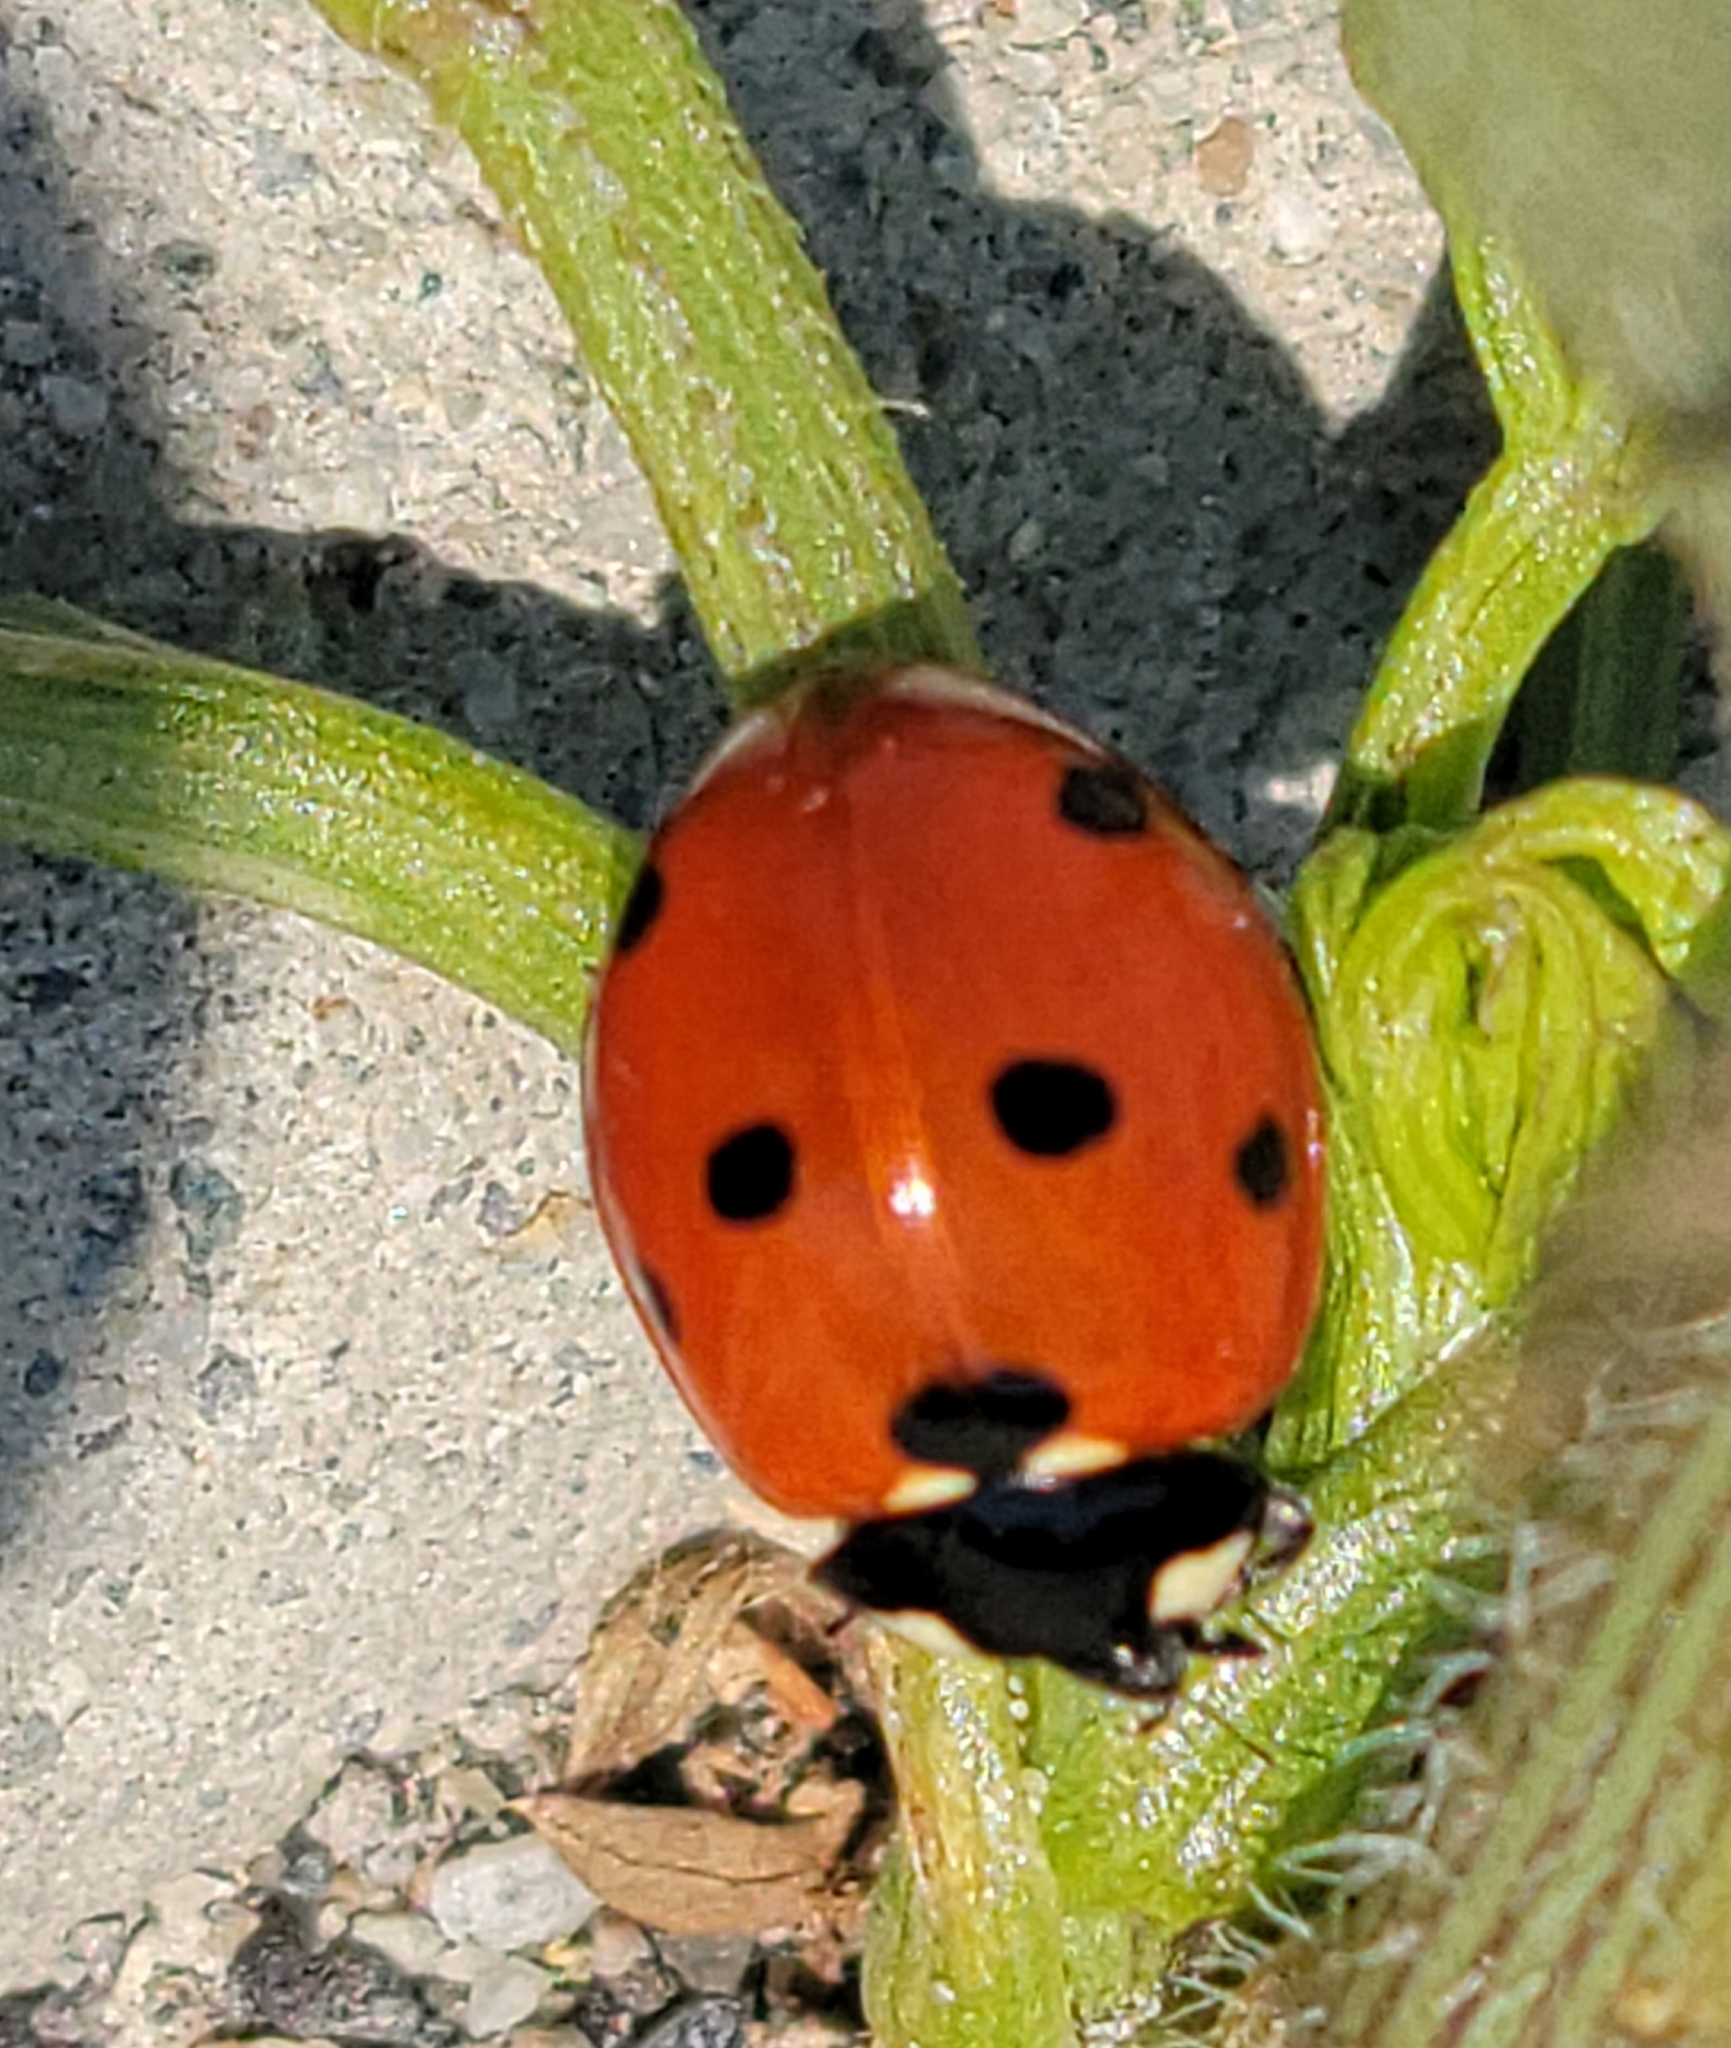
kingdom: Animalia
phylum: Arthropoda
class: Insecta
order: Coleoptera
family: Coccinellidae
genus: Coccinella
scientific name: Coccinella septempunctata
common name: Sevenspotted lady beetle
